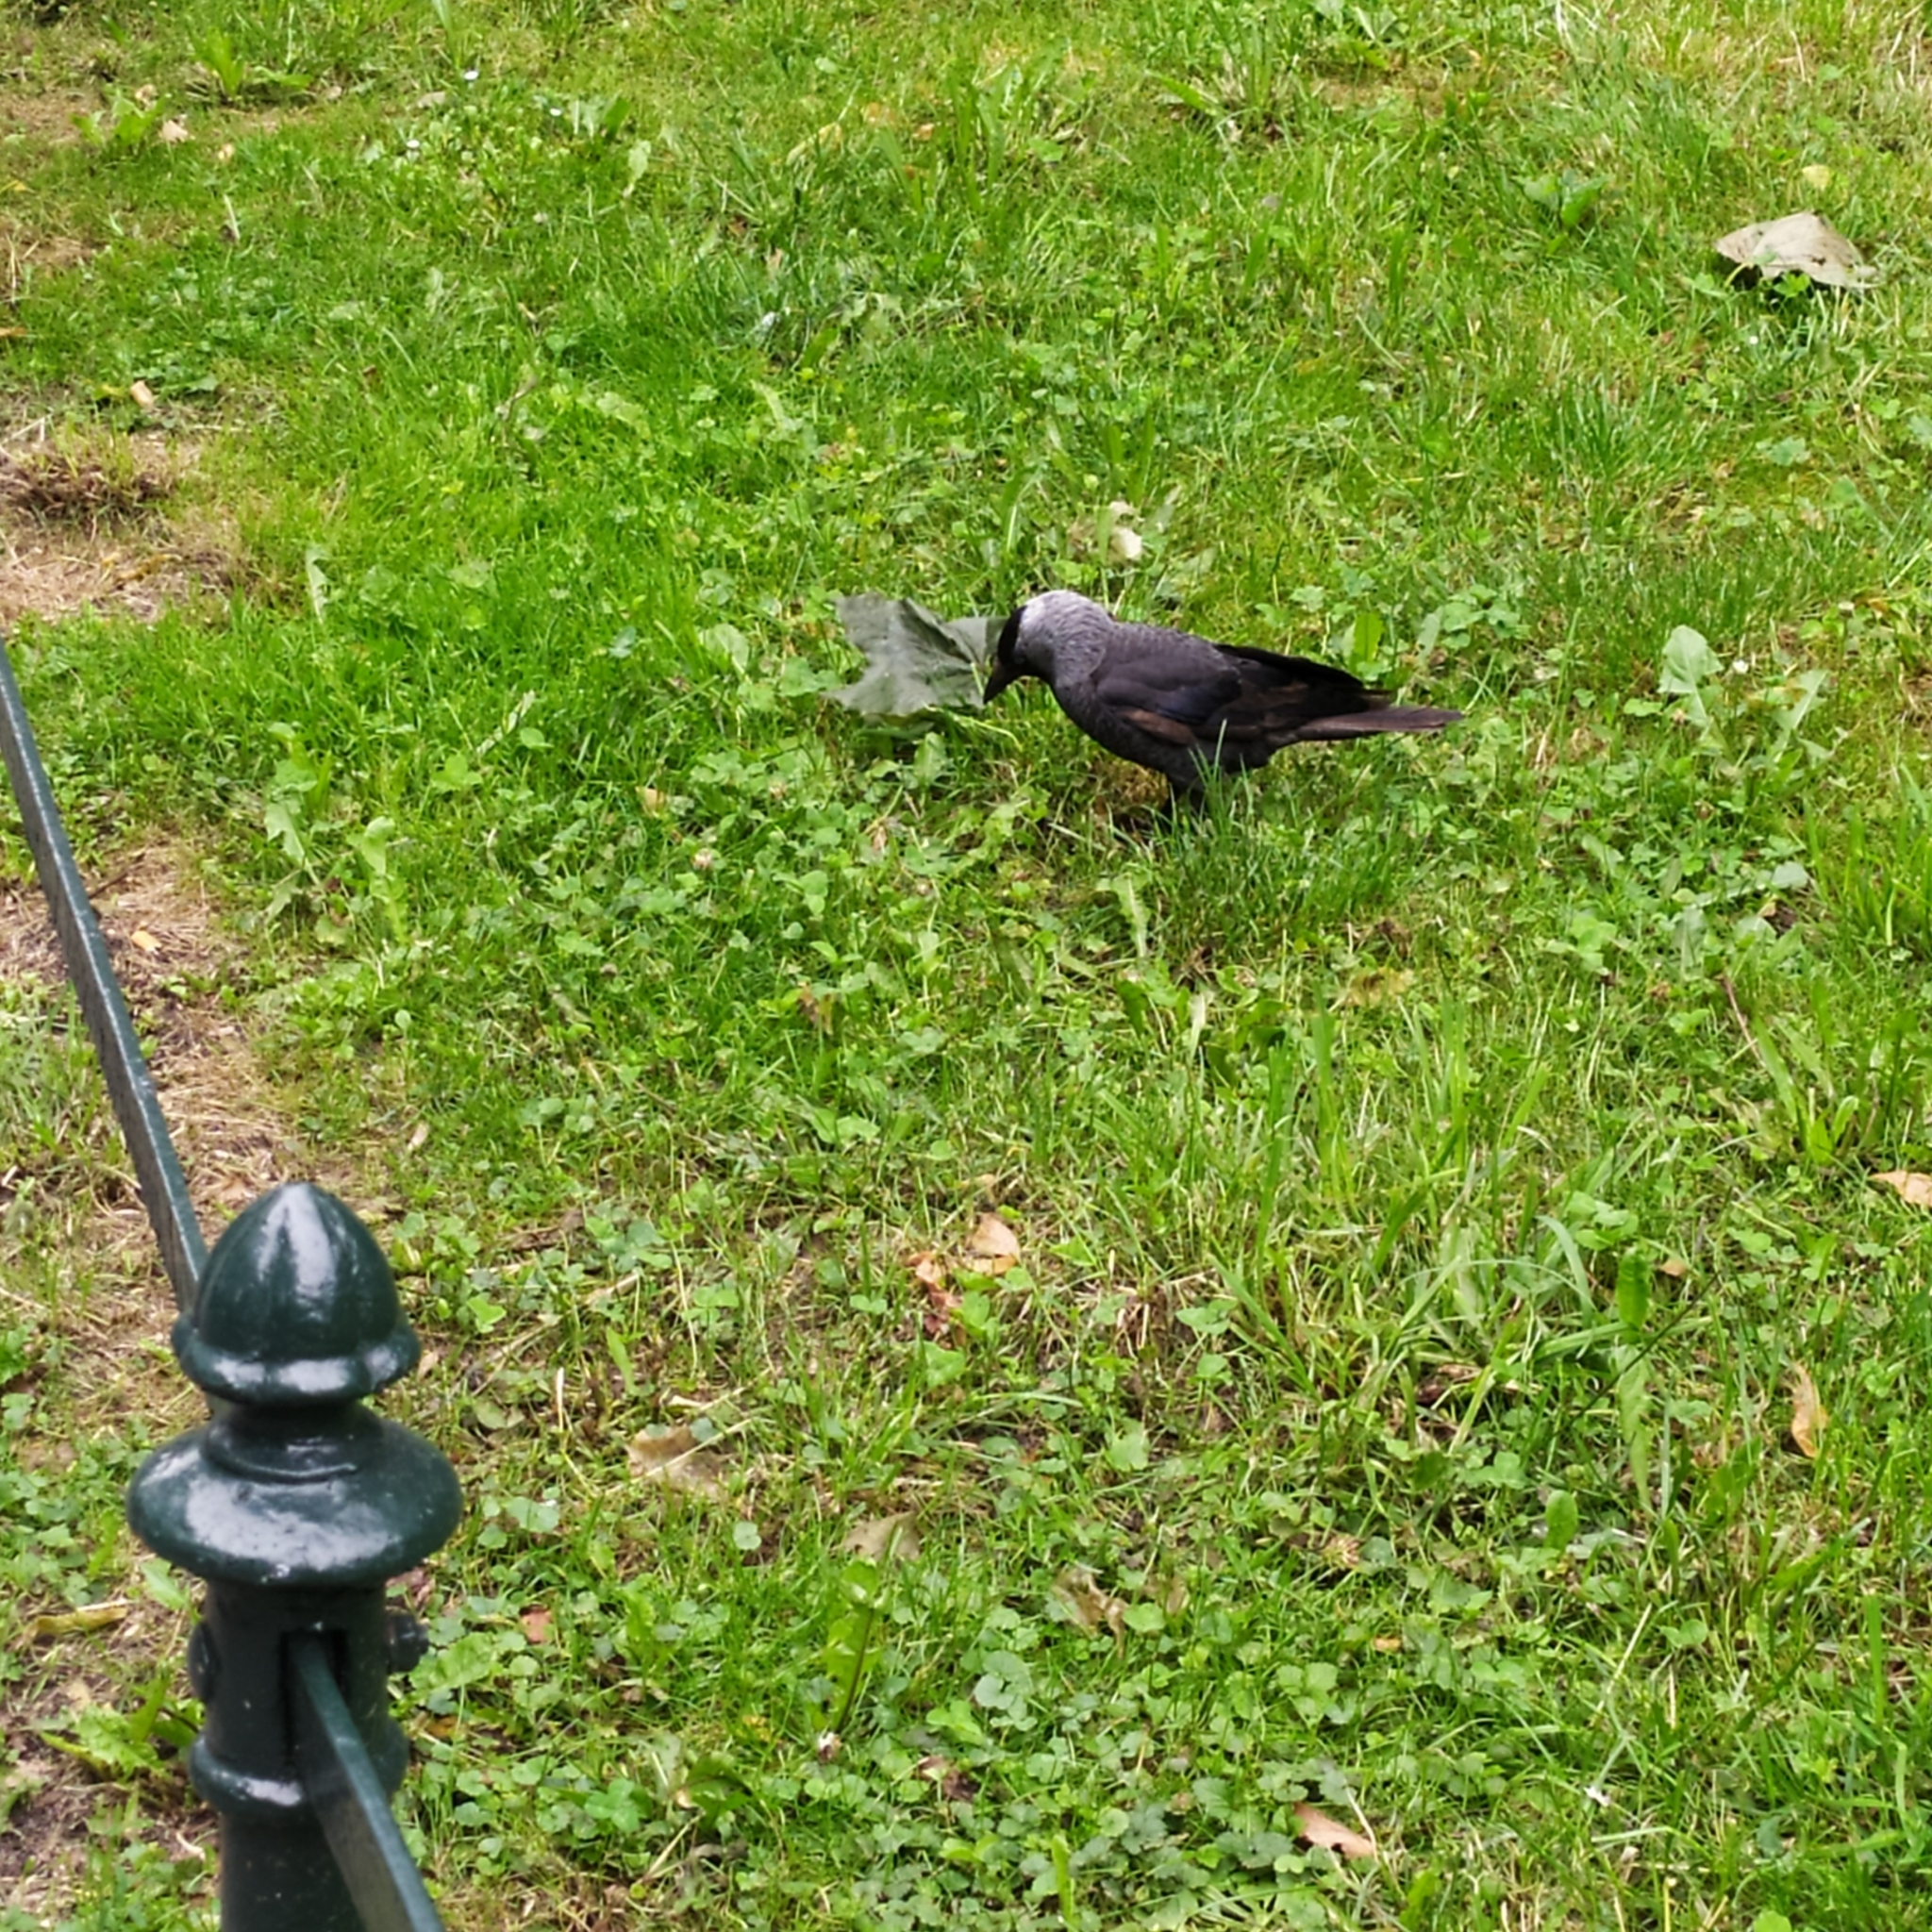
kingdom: Animalia
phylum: Chordata
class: Aves
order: Passeriformes
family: Corvidae
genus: Coloeus
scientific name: Coloeus monedula
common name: Western jackdaw
